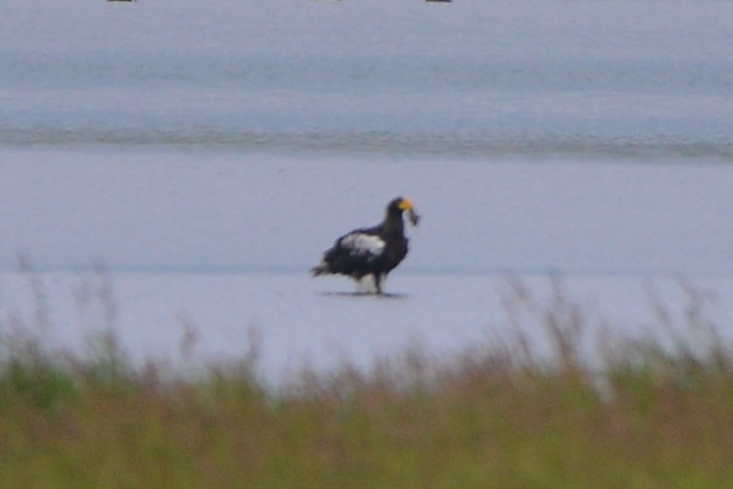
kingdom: Animalia
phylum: Chordata
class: Aves
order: Accipitriformes
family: Accipitridae
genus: Haliaeetus
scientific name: Haliaeetus pelagicus
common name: Steller's sea eagle
